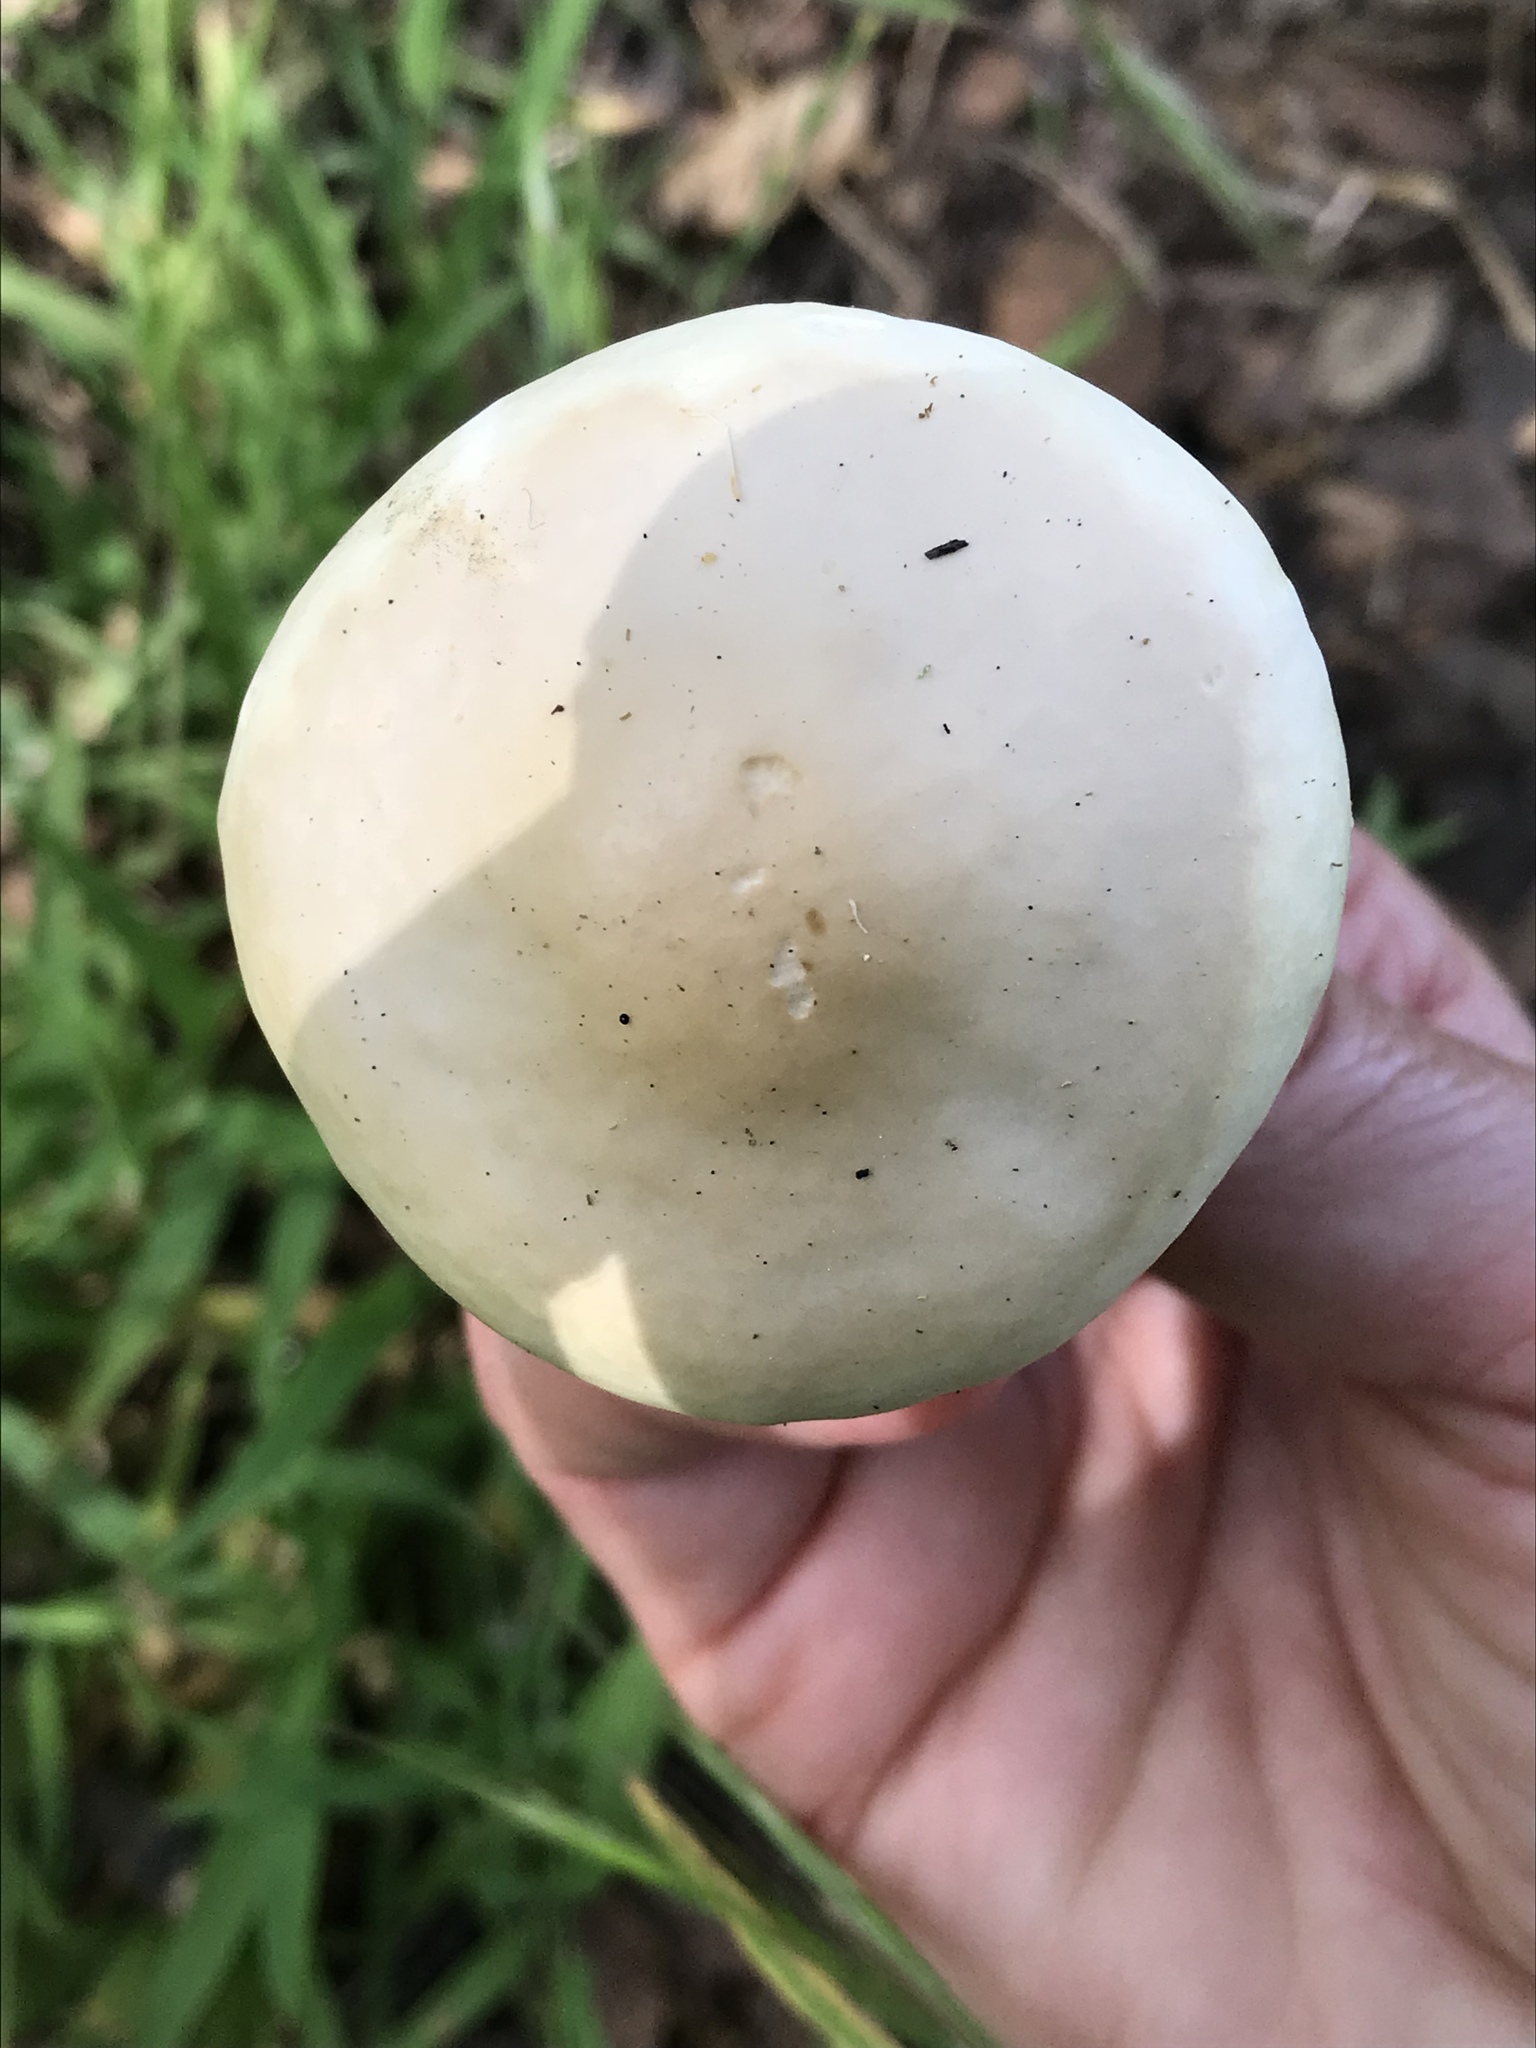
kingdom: Fungi
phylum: Basidiomycota
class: Agaricomycetes
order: Agaricales
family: Strophariaceae
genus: Agrocybe
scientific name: Agrocybe praecox
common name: Spring fieldcap
